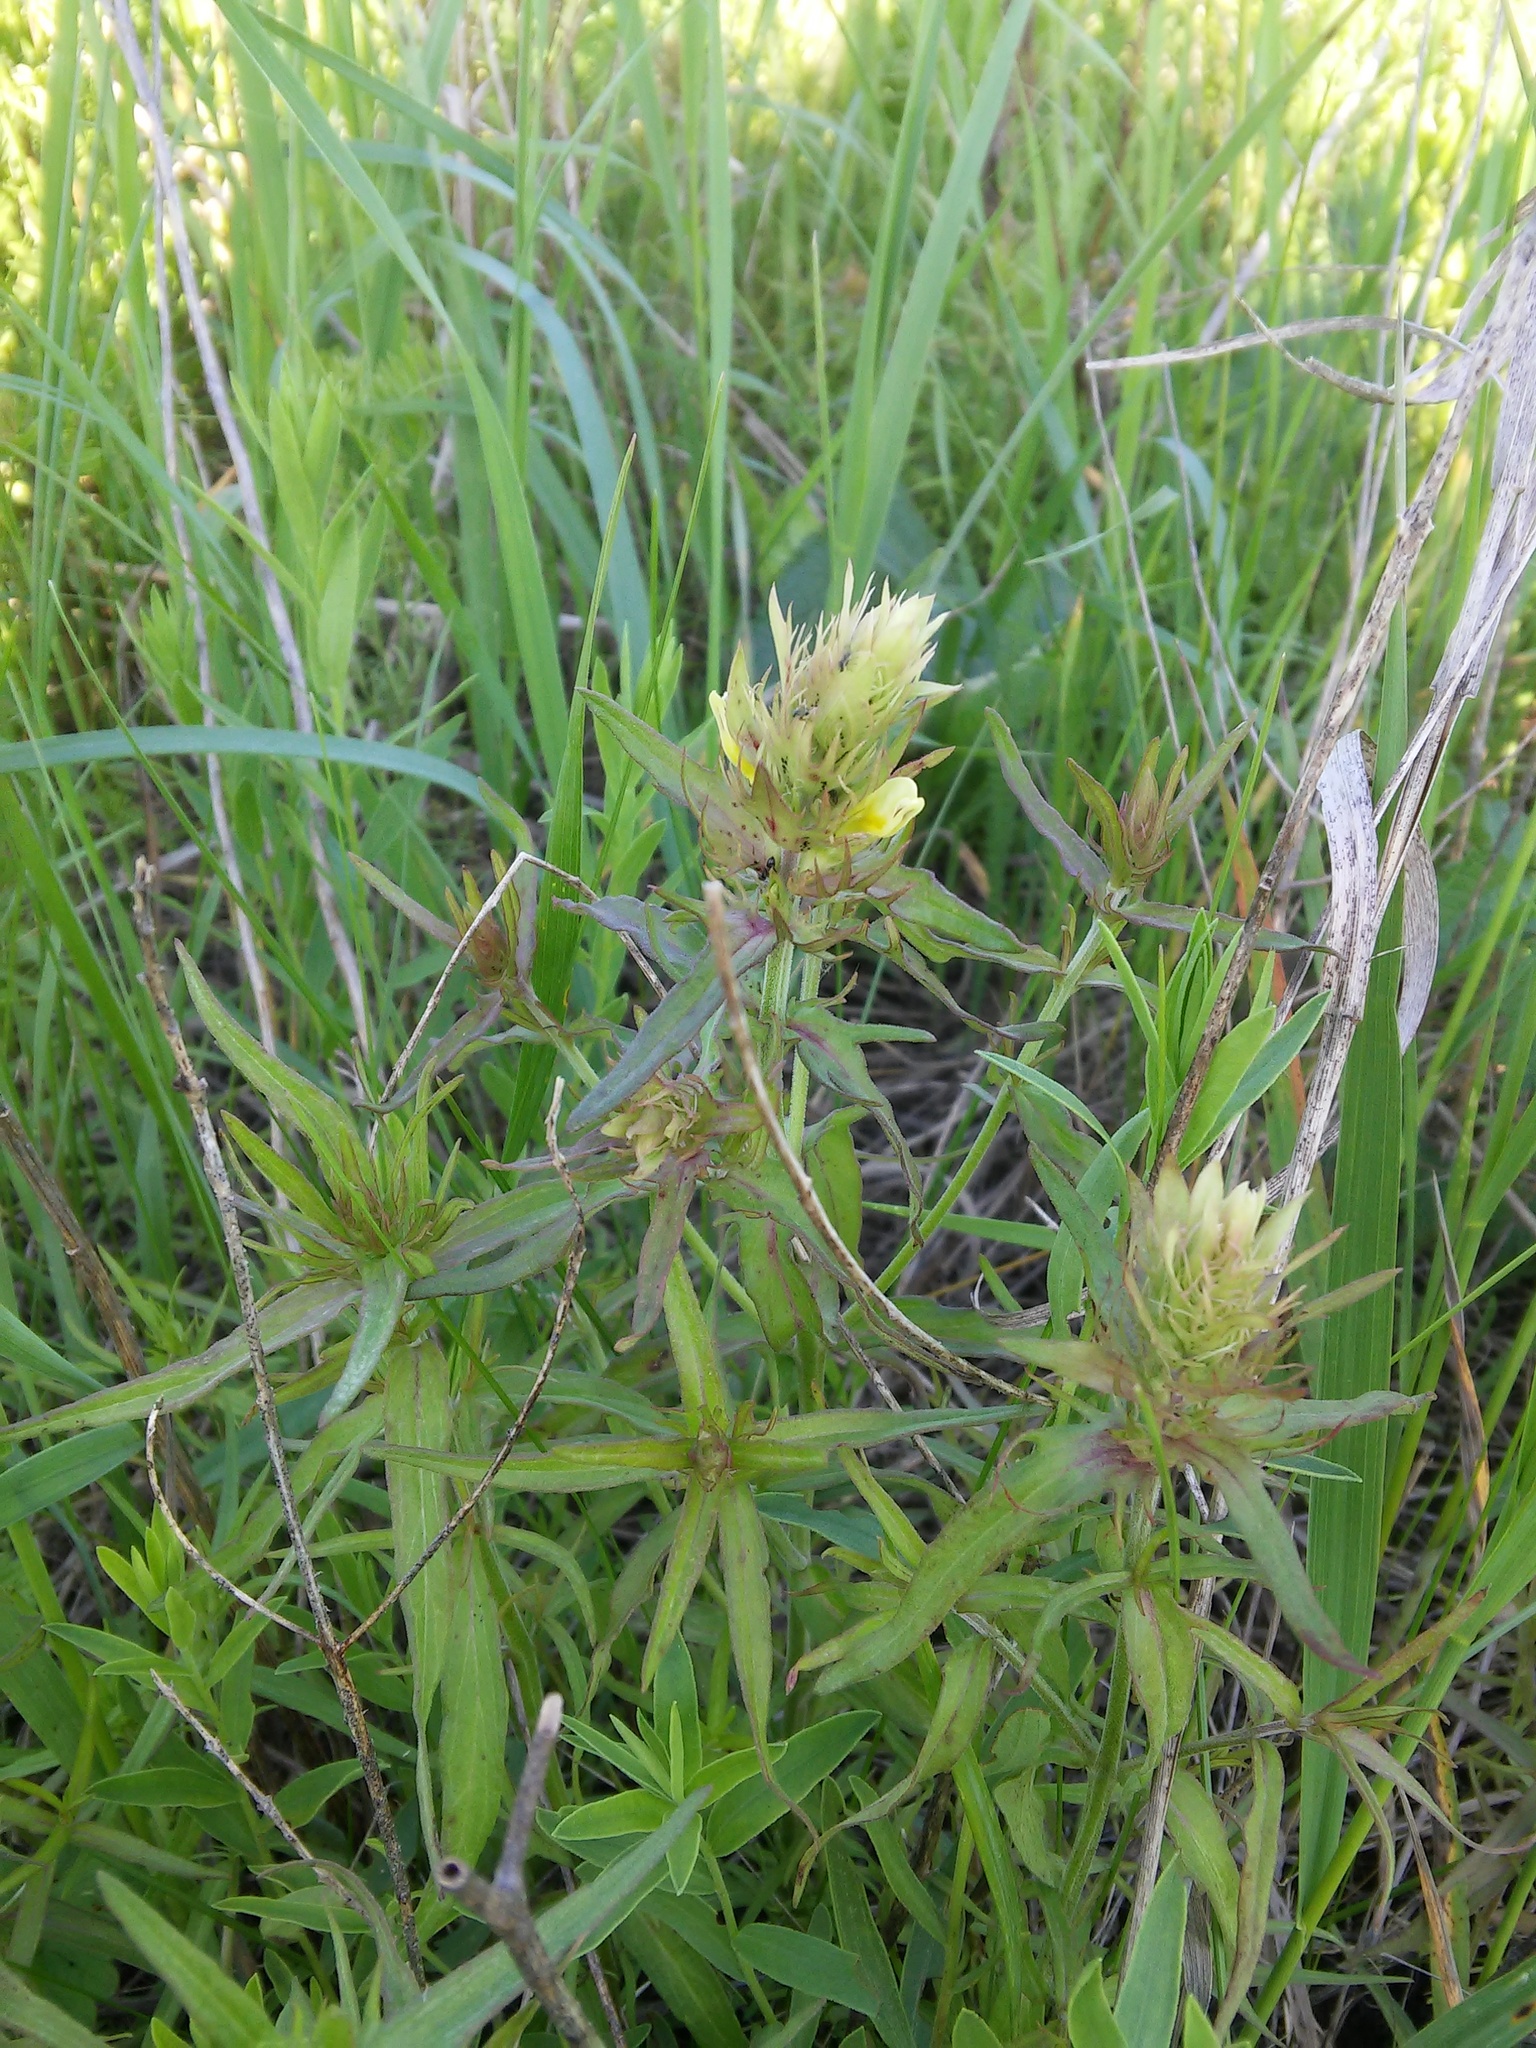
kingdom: Plantae
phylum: Tracheophyta
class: Magnoliopsida
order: Lamiales
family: Orobanchaceae
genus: Melampyrum
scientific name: Melampyrum arvense
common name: Field cow-wheat
